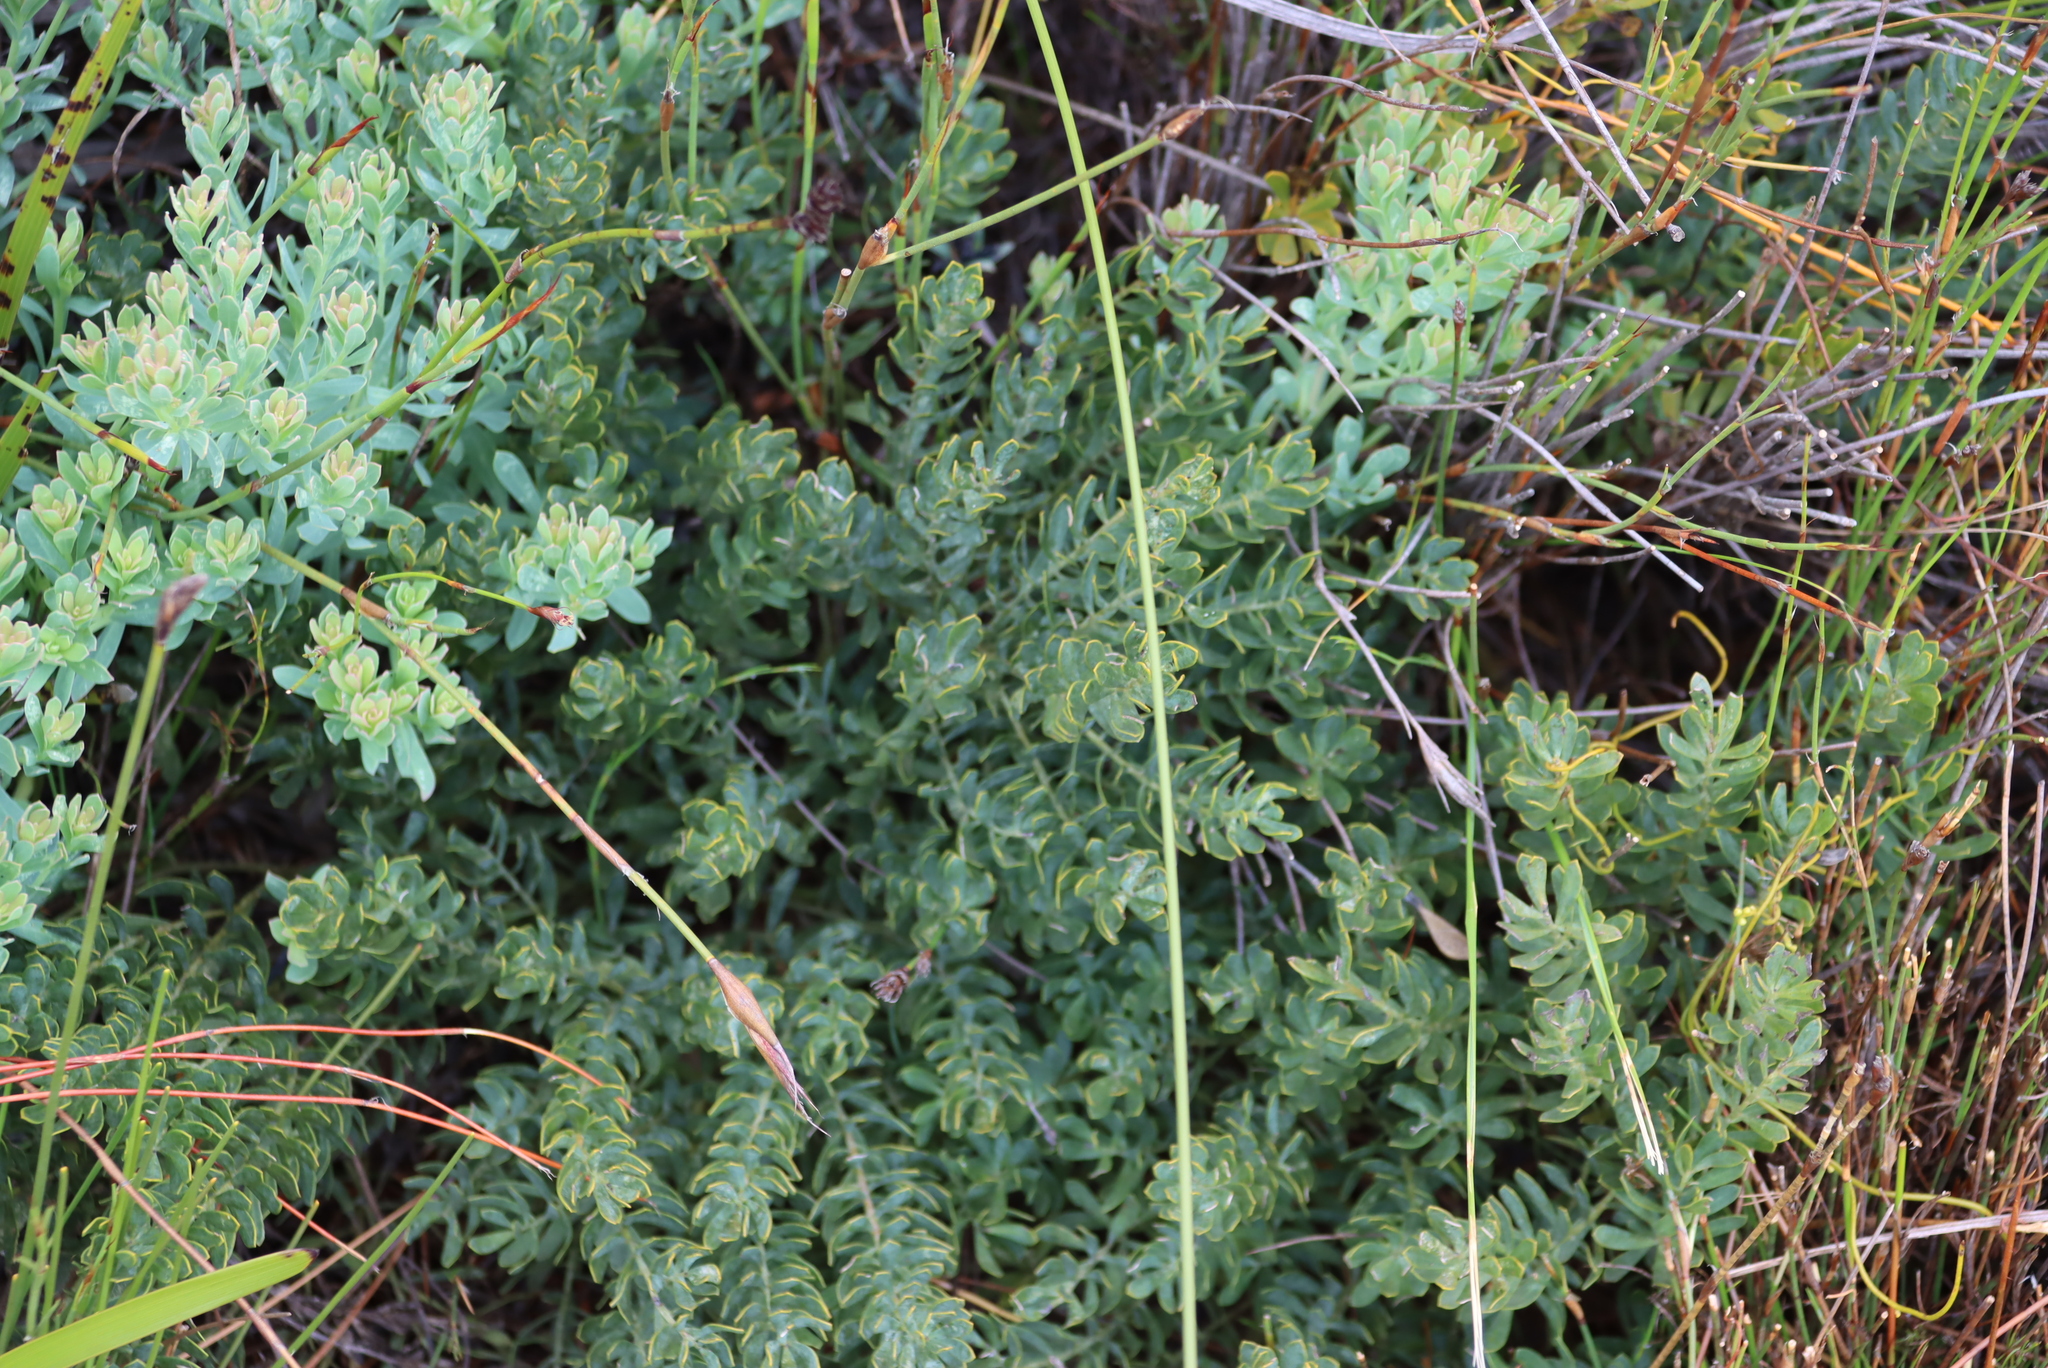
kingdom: Plantae
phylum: Tracheophyta
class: Magnoliopsida
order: Fabales
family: Fabaceae
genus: Rafnia
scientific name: Rafnia angulata
